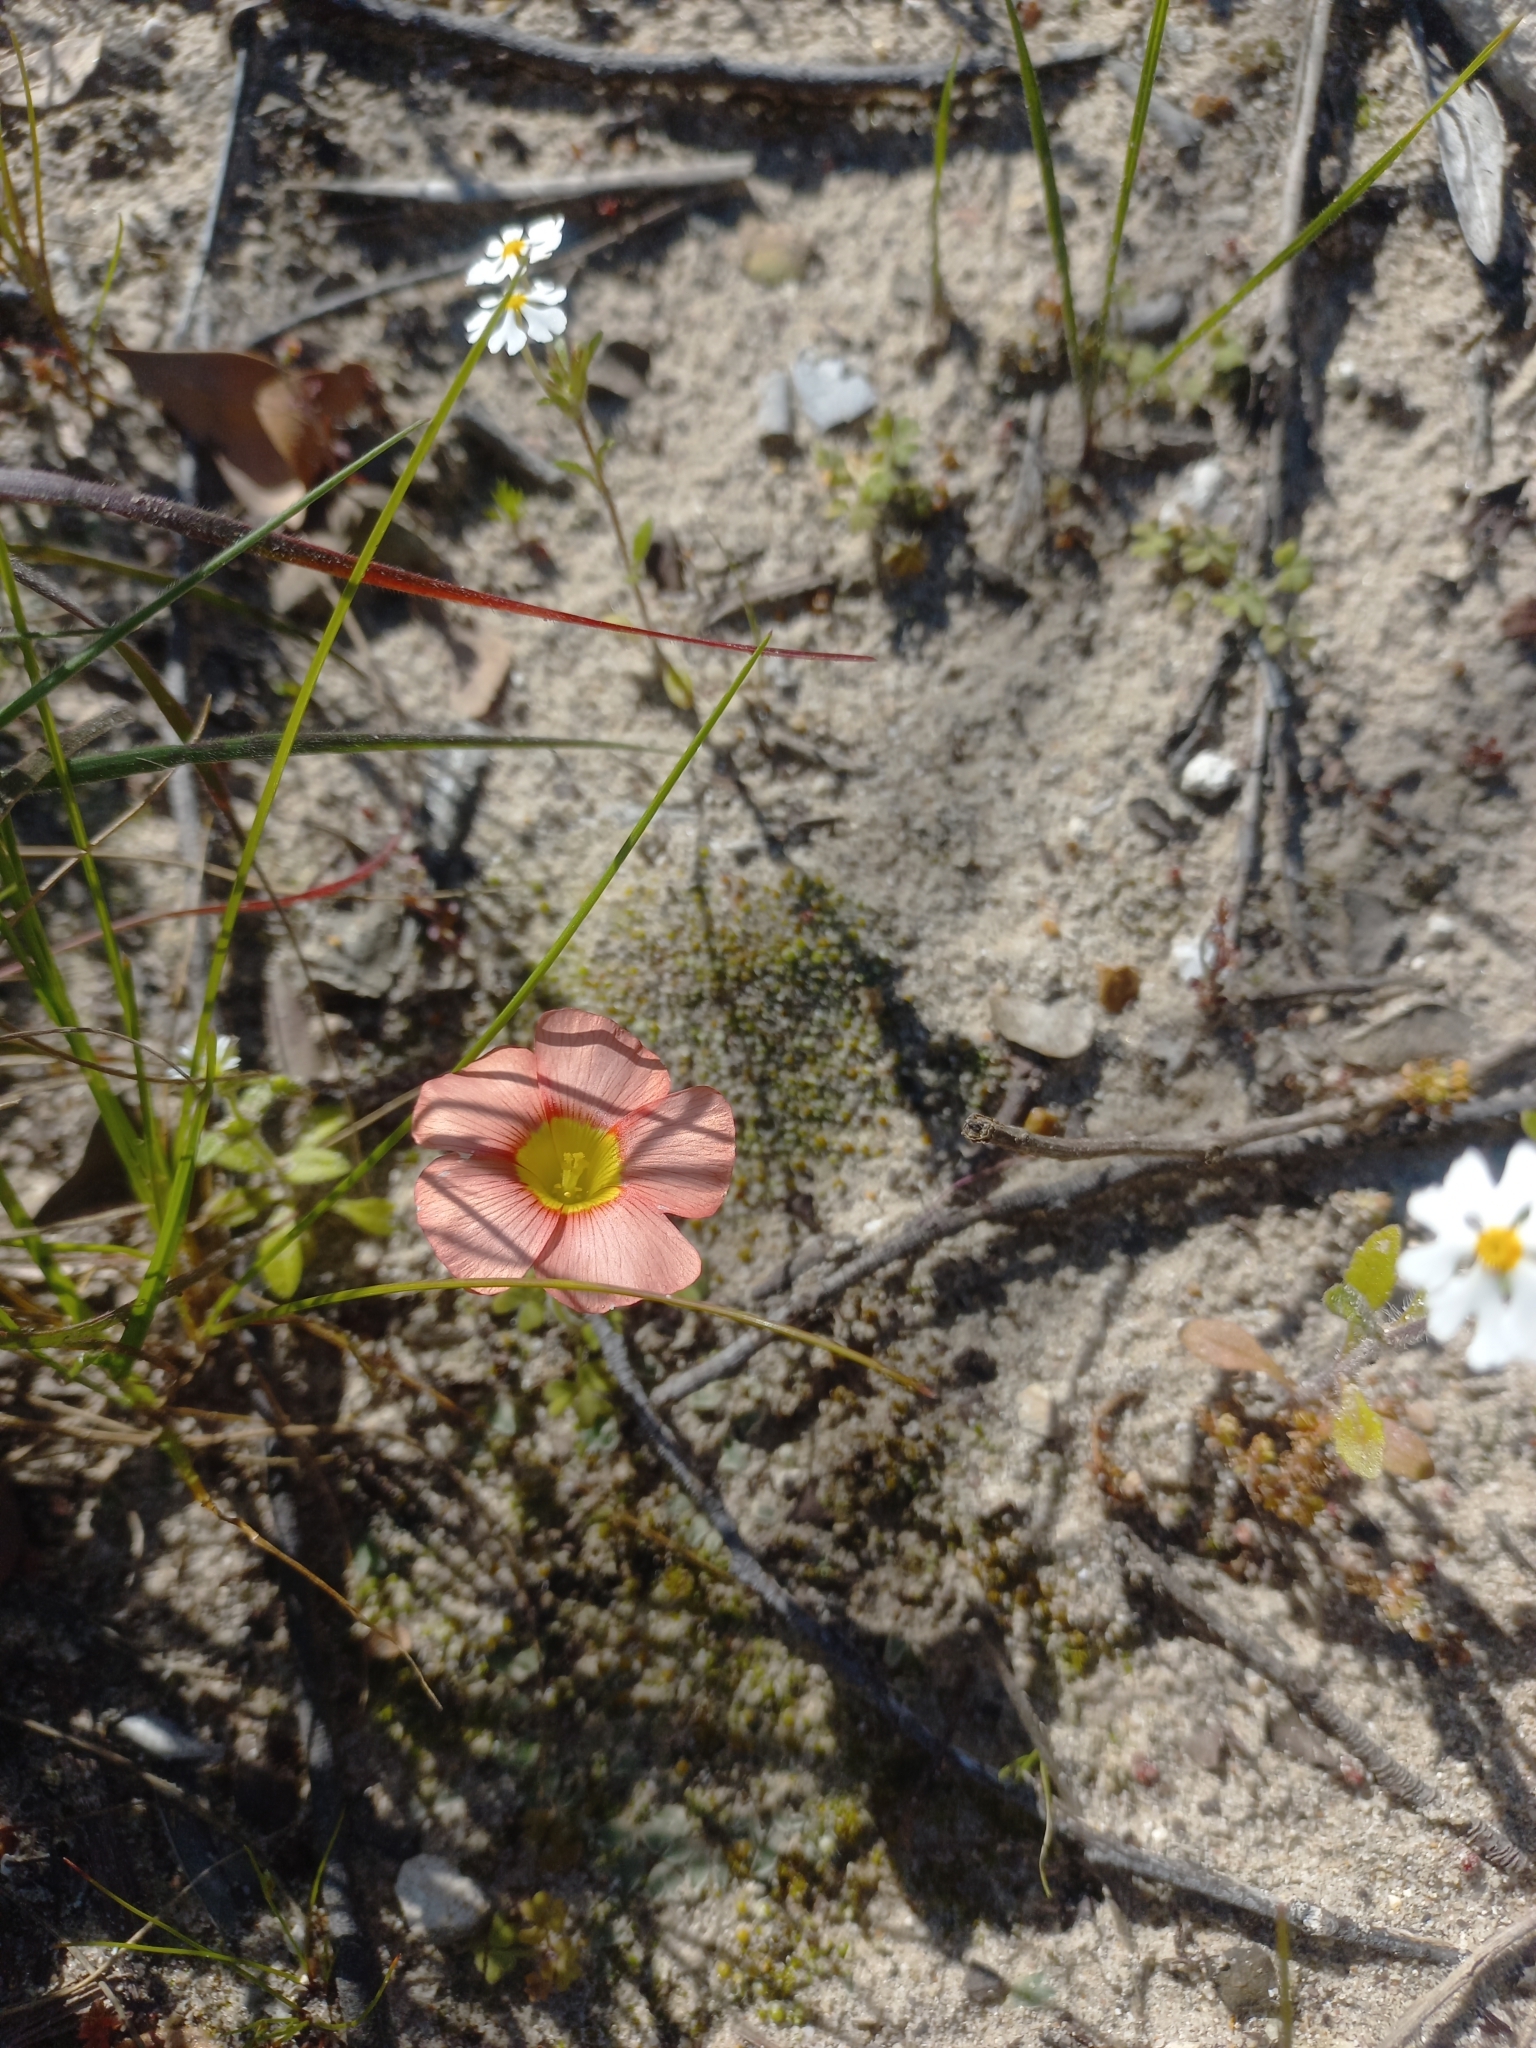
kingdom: Plantae
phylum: Tracheophyta
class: Magnoliopsida
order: Oxalidales
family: Oxalidaceae
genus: Oxalis
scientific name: Oxalis obtusa
